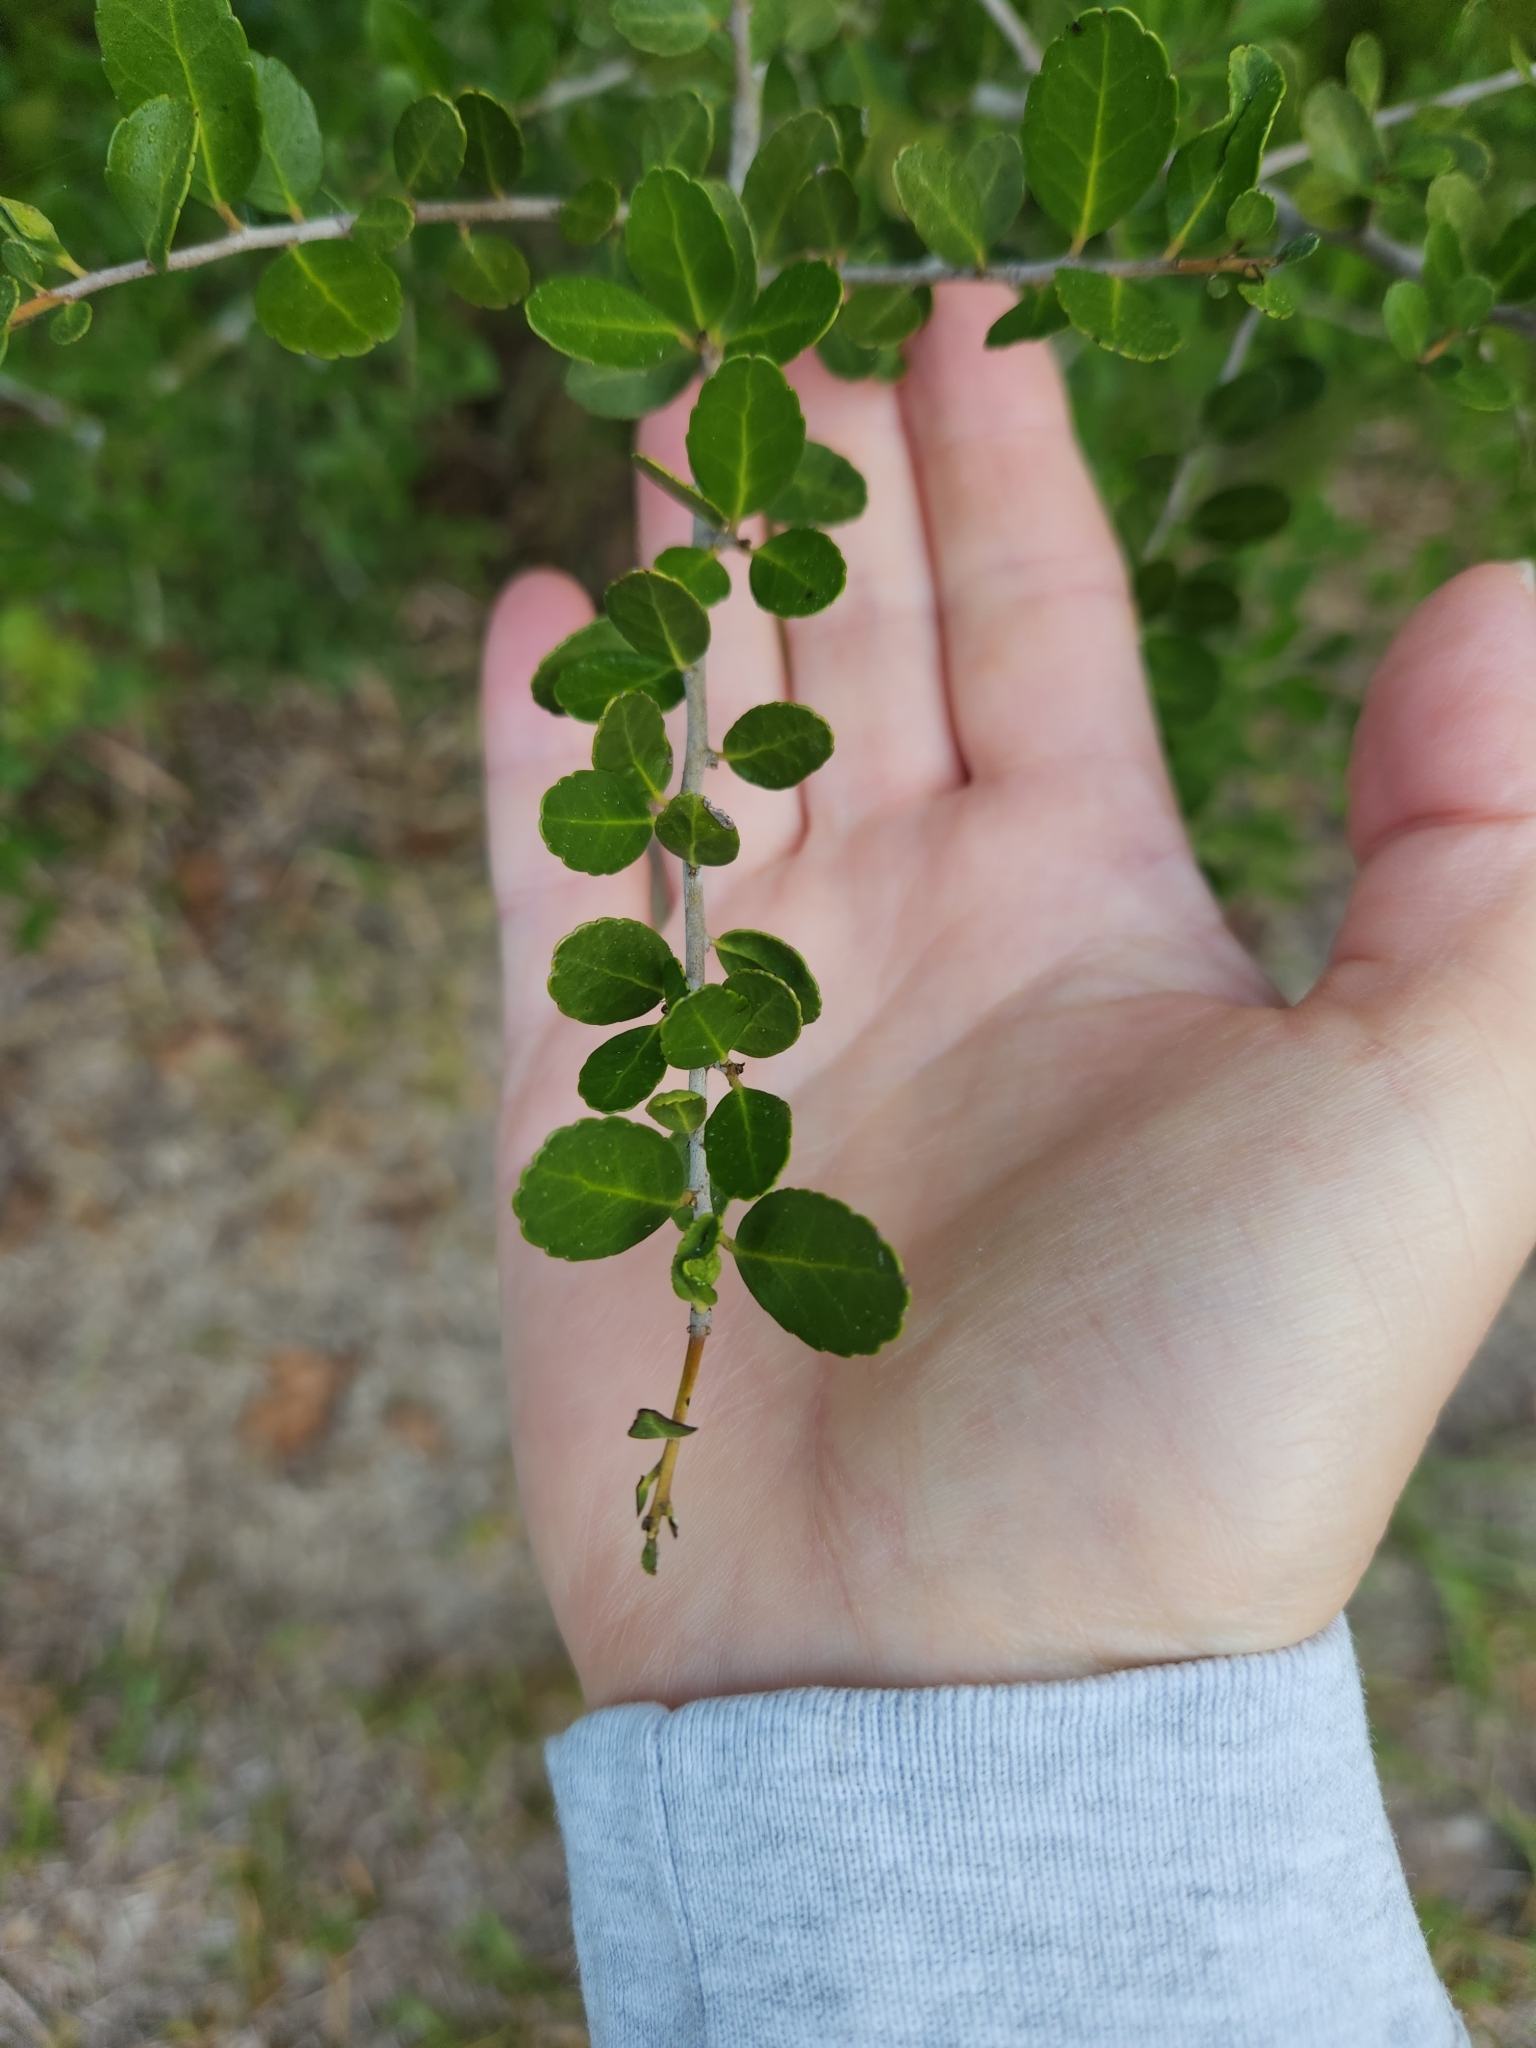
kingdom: Plantae
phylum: Tracheophyta
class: Magnoliopsida
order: Aquifoliales
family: Aquifoliaceae
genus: Ilex
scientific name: Ilex vomitoria
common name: Yaupon holly
